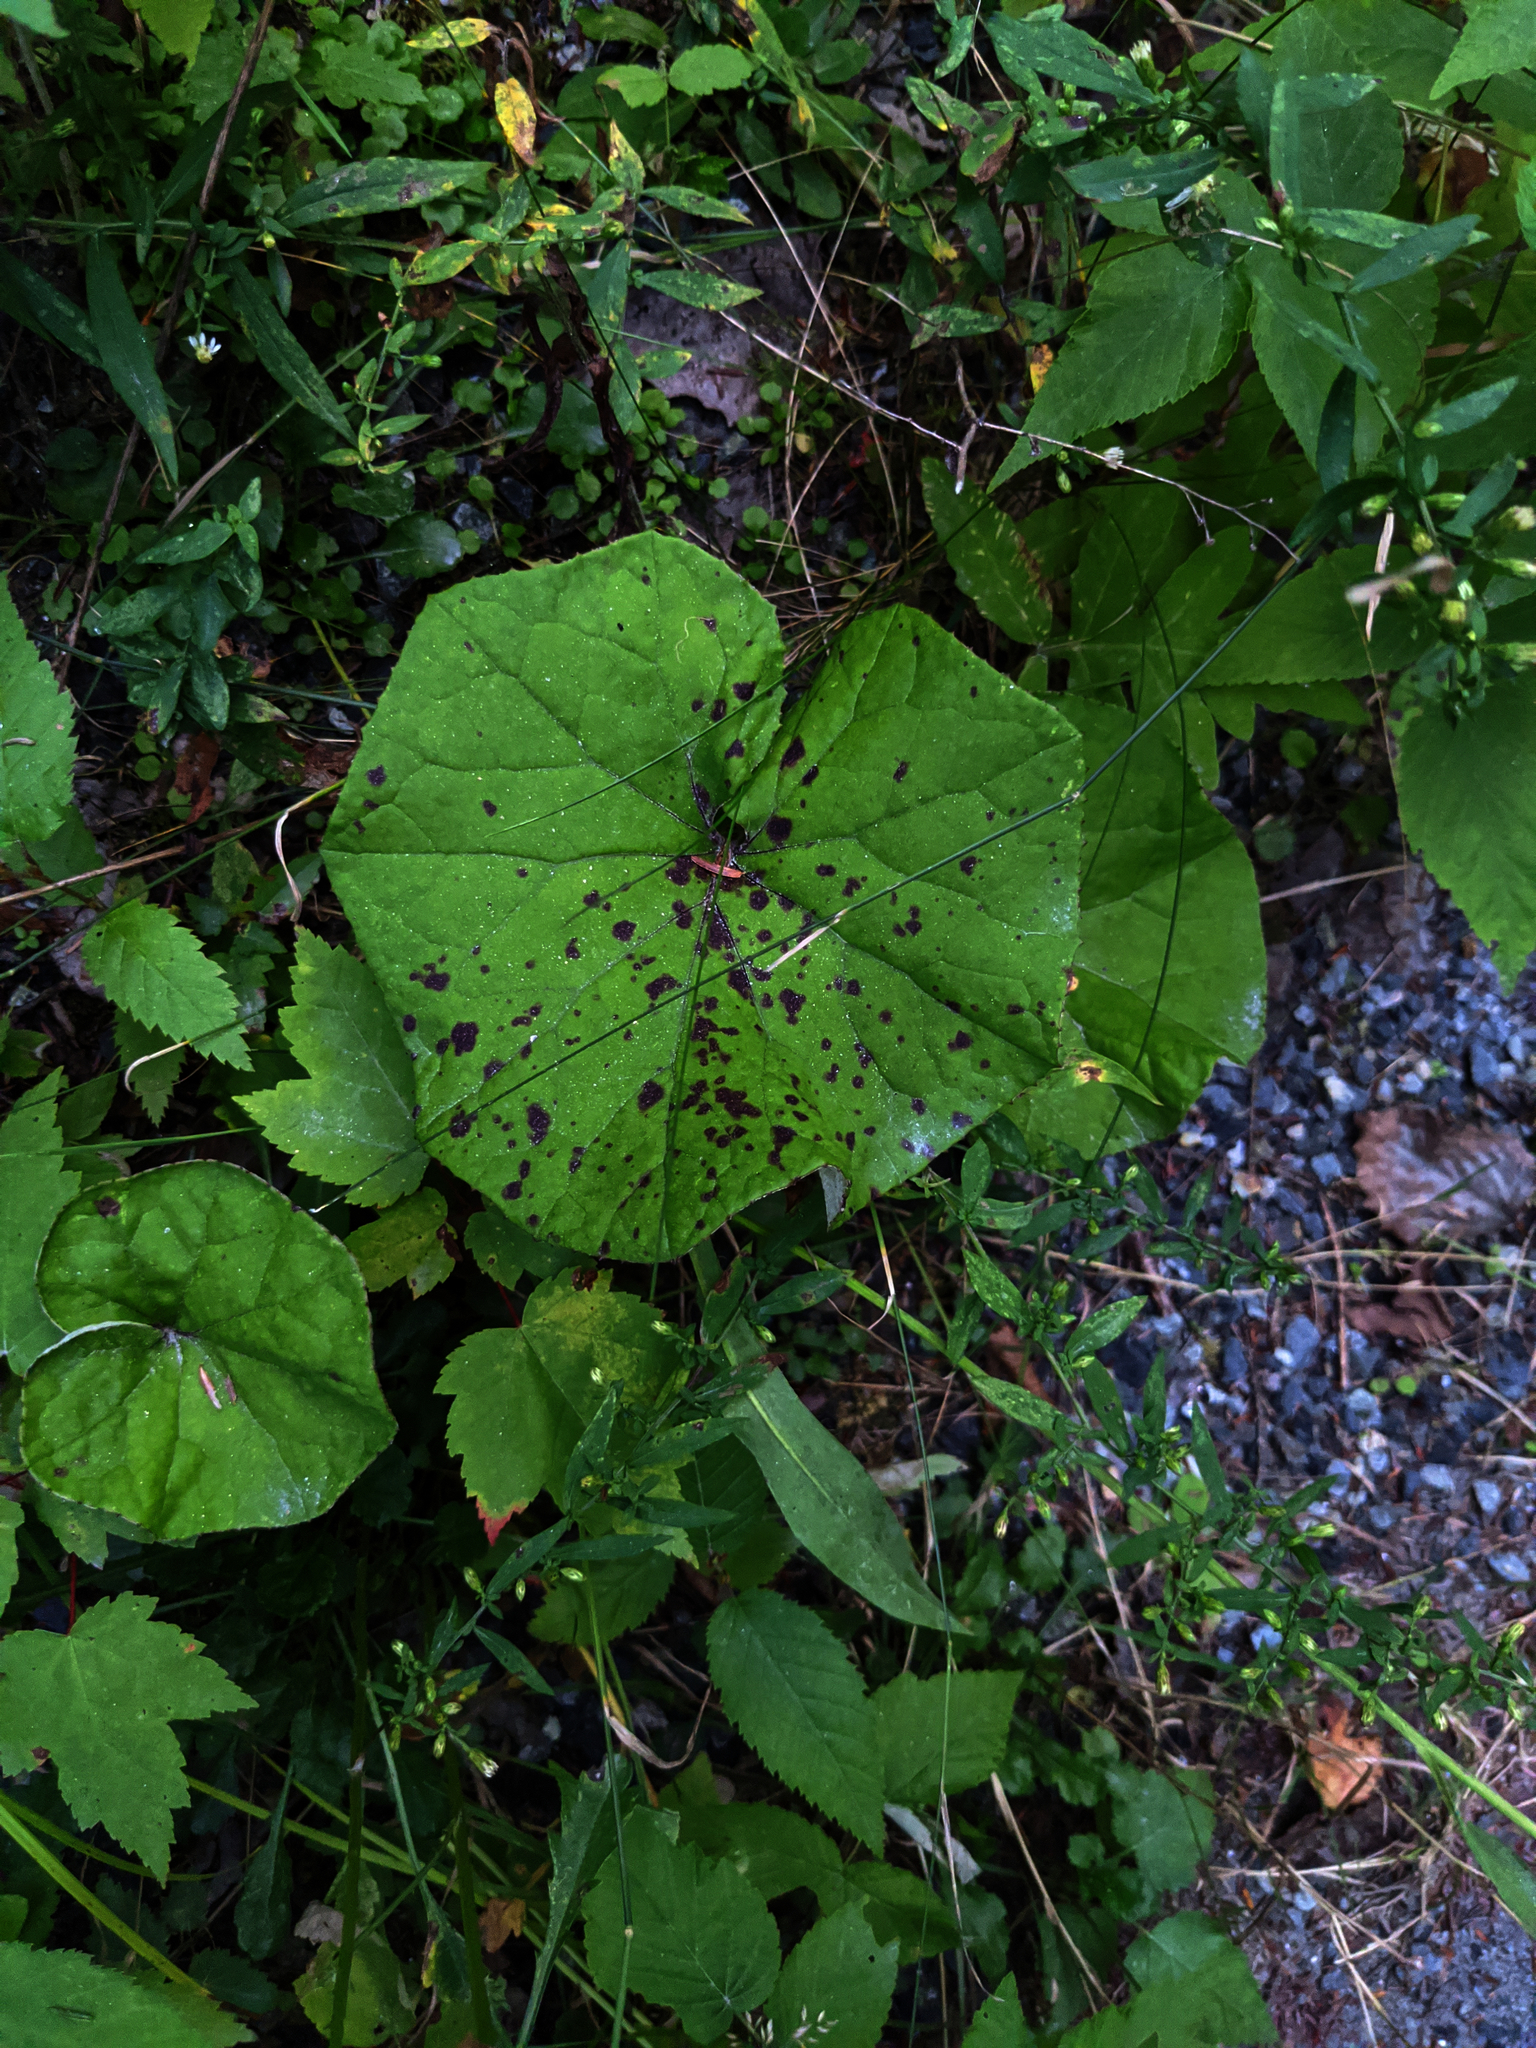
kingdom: Plantae
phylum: Tracheophyta
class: Magnoliopsida
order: Asterales
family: Asteraceae
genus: Tussilago
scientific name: Tussilago farfara
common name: Coltsfoot
